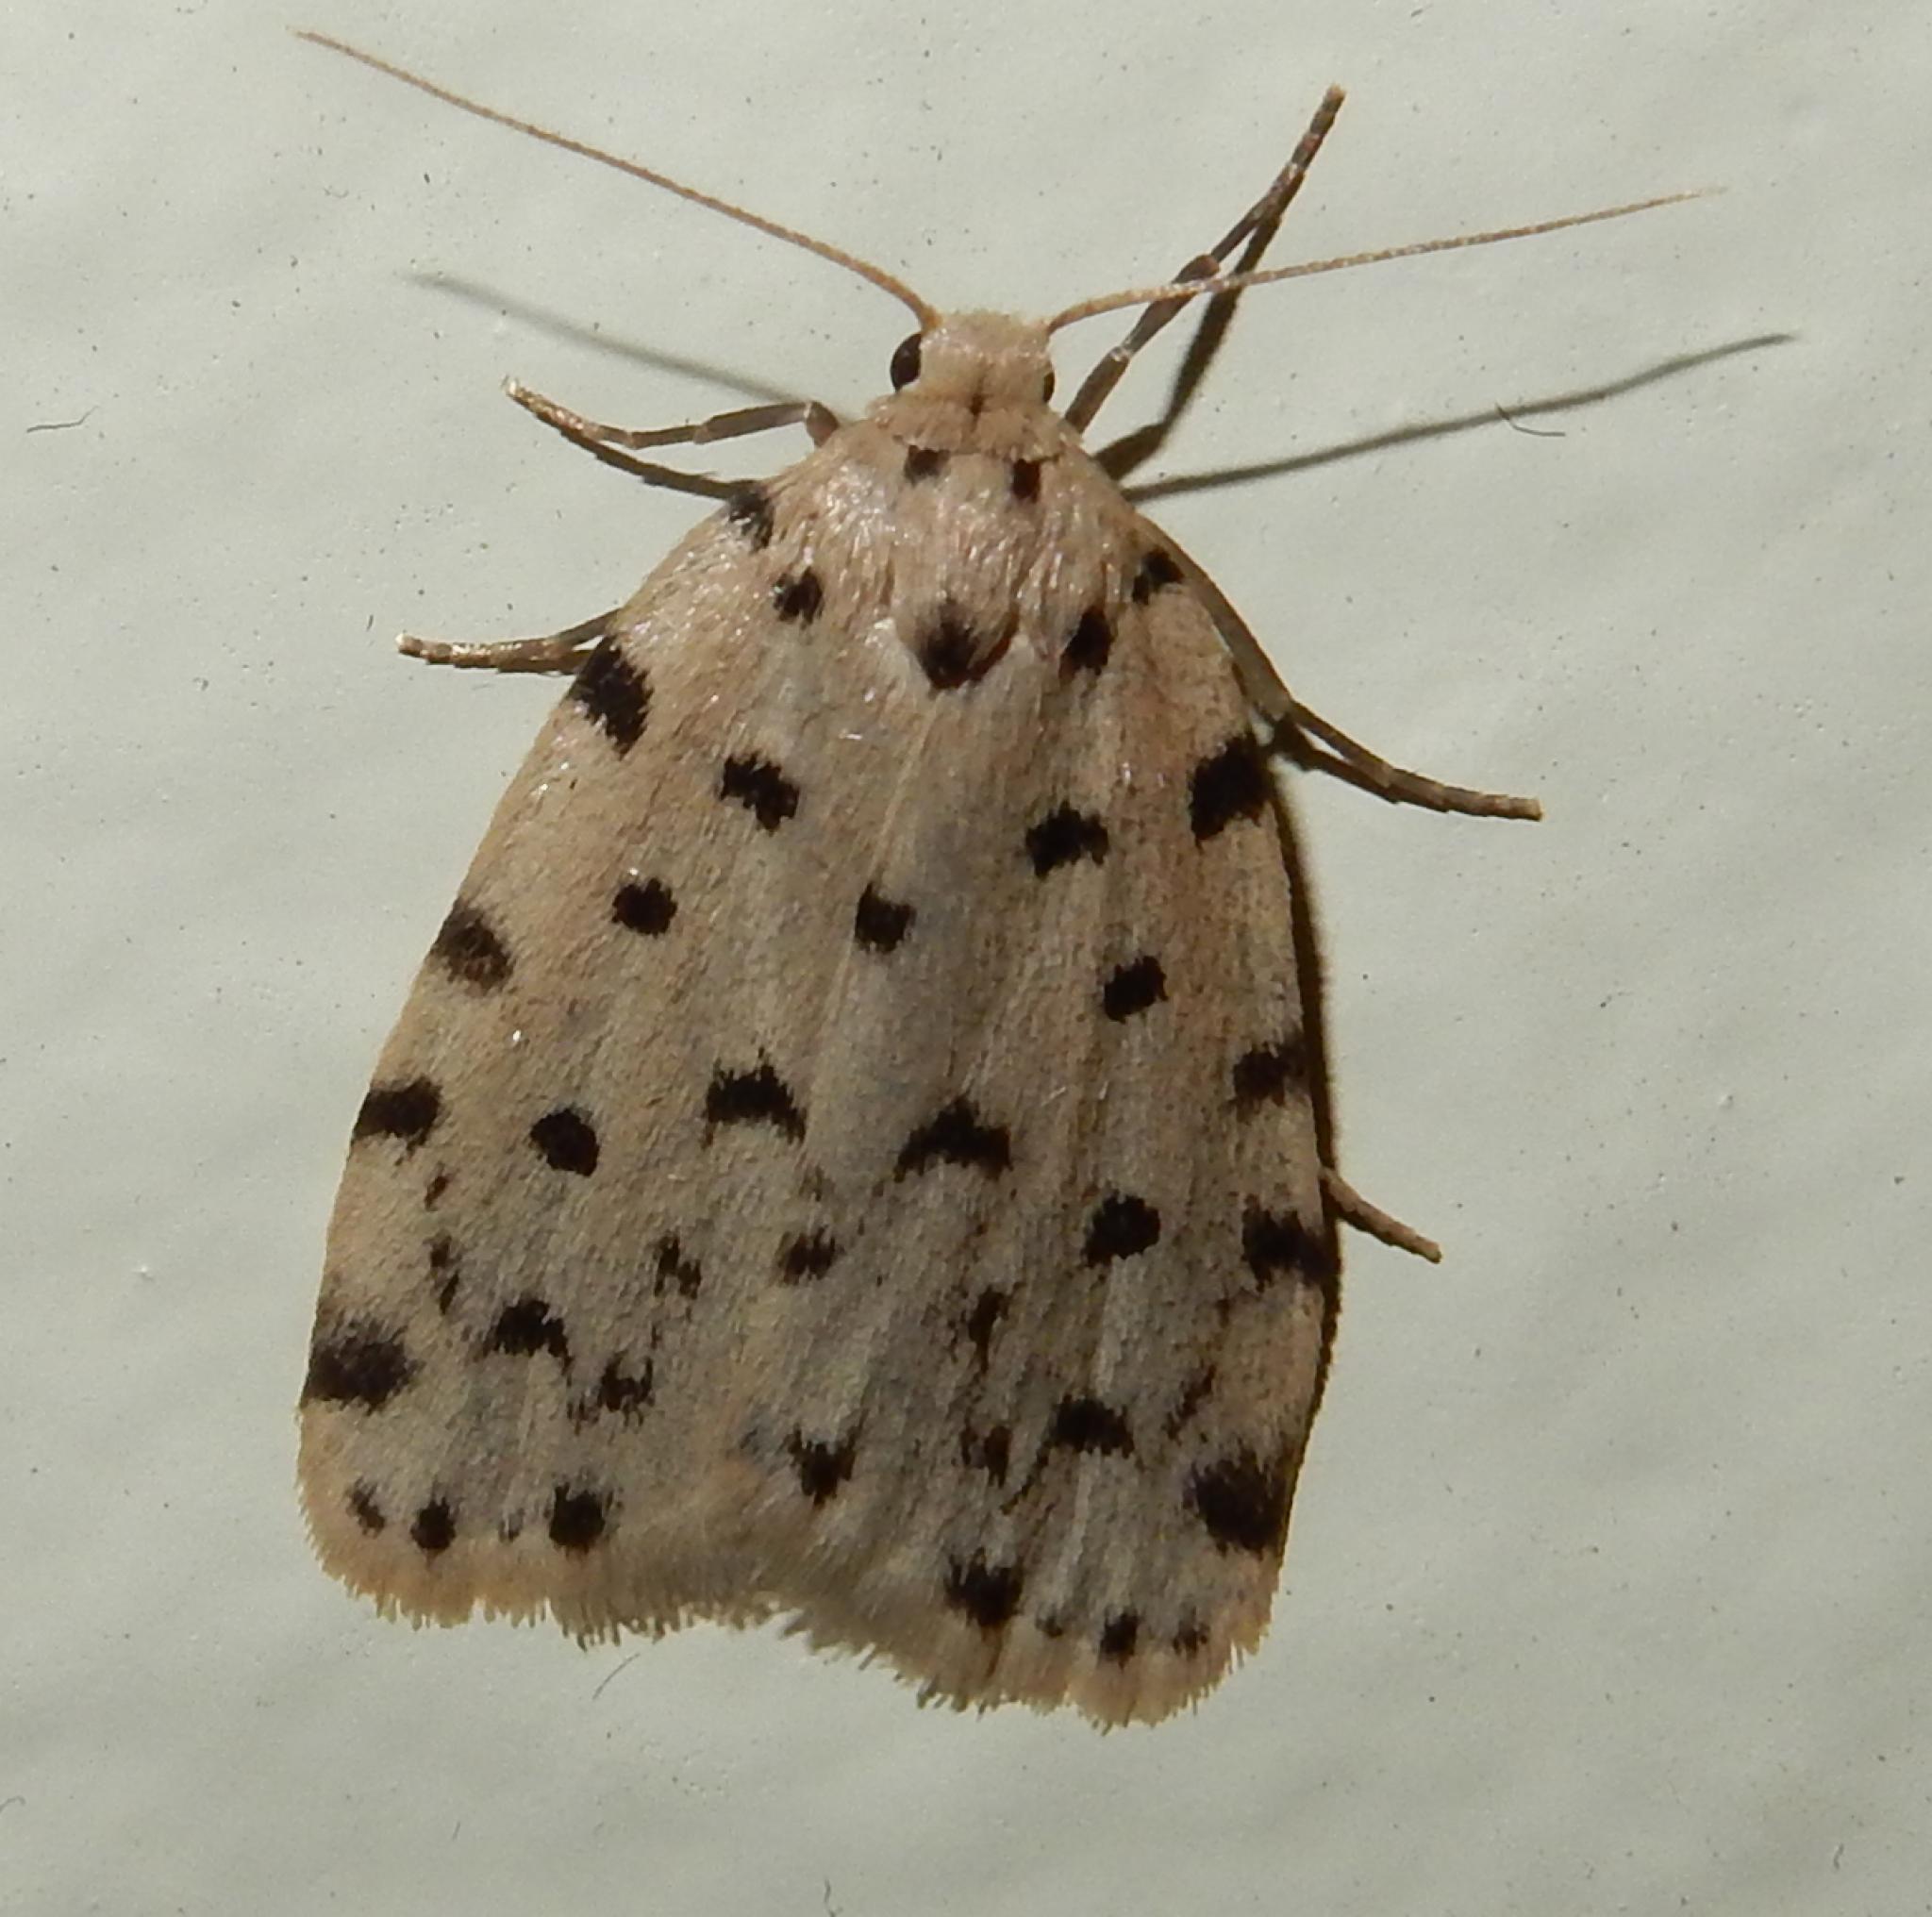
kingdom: Animalia
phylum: Arthropoda
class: Insecta
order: Lepidoptera
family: Erebidae
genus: Siccia
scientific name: Siccia caffra
